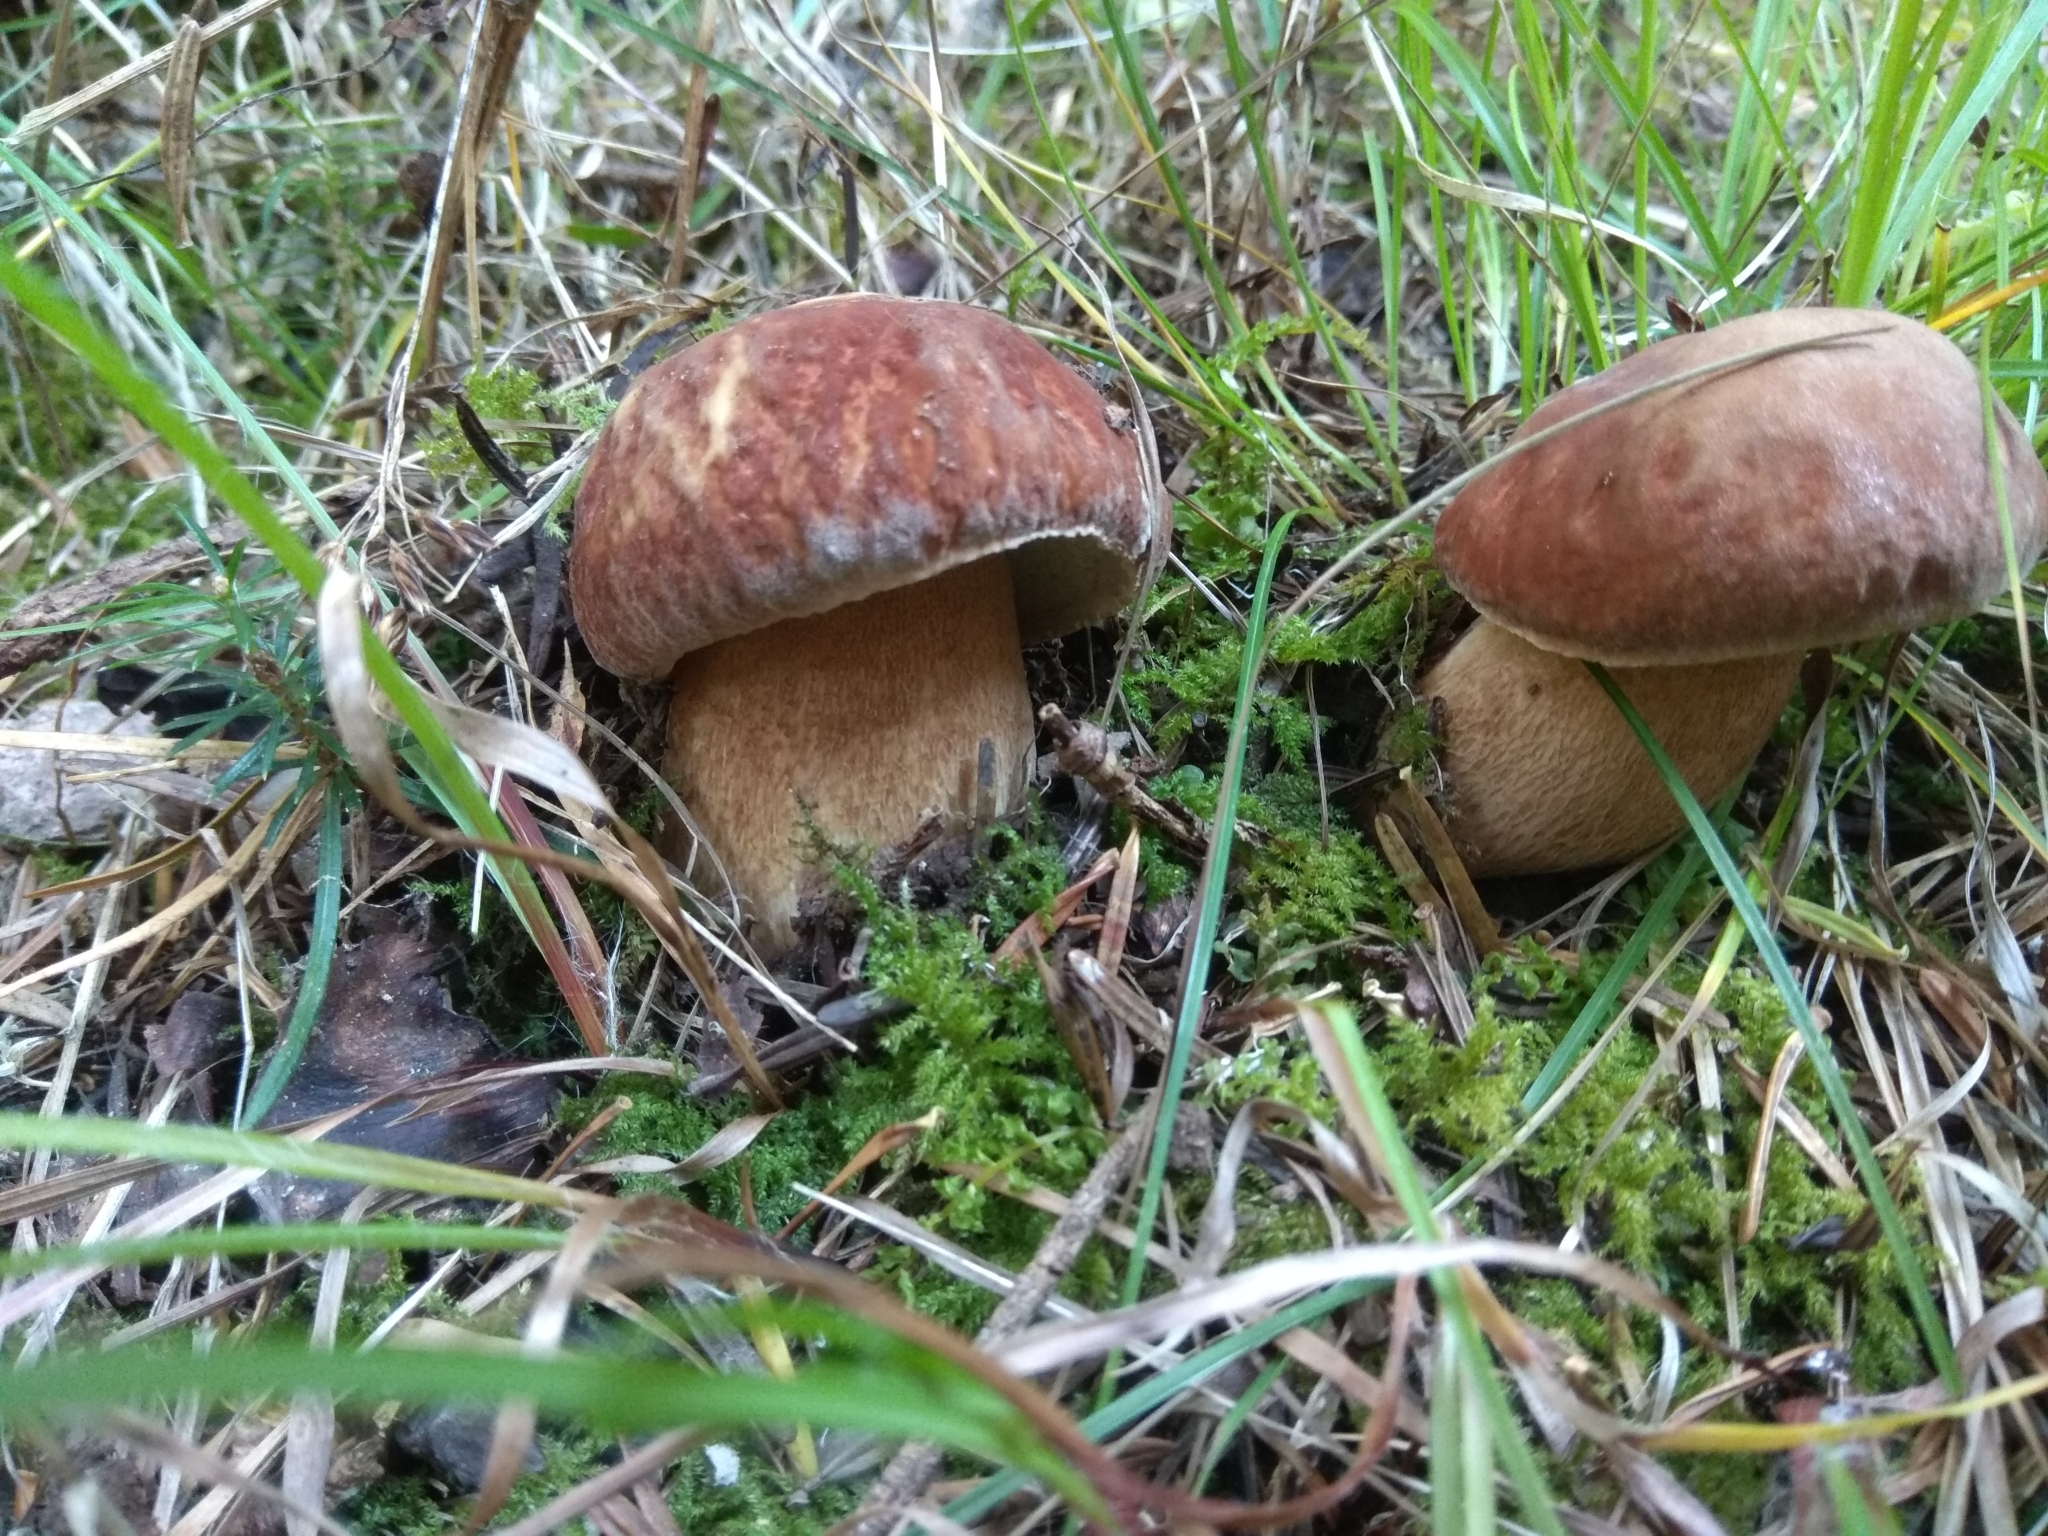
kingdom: Fungi
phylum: Basidiomycota
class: Agaricomycetes
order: Boletales
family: Boletaceae
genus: Boletus
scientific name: Boletus reticulatus
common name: Summer bolete
